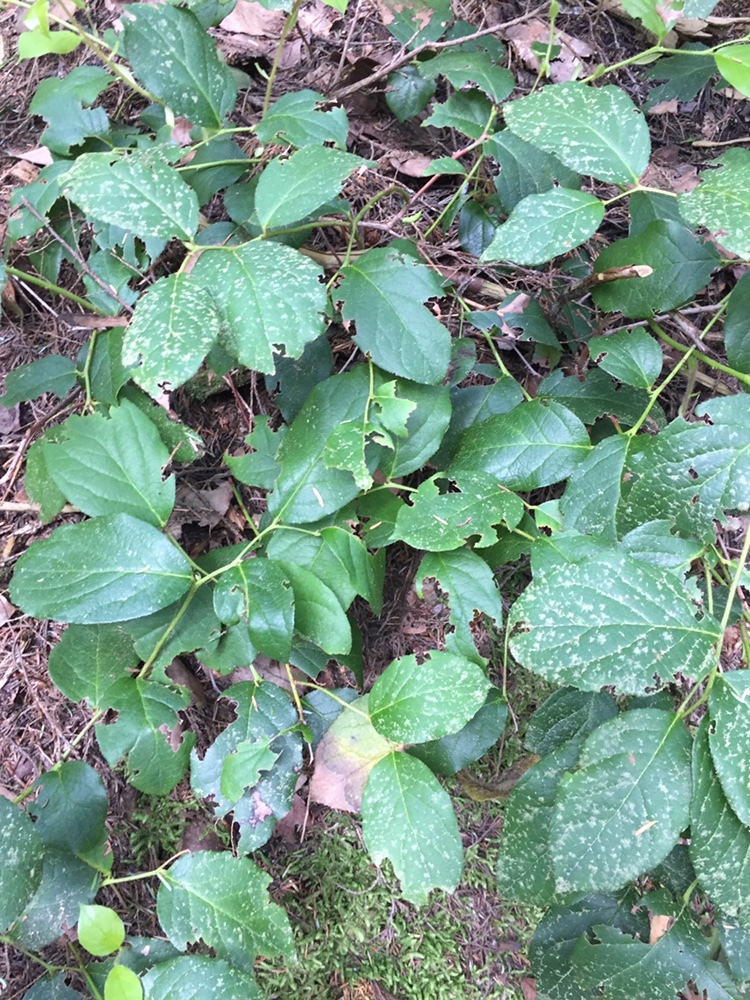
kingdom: Plantae
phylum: Tracheophyta
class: Magnoliopsida
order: Ericales
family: Ericaceae
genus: Gaultheria
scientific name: Gaultheria shallon
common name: Shallon
